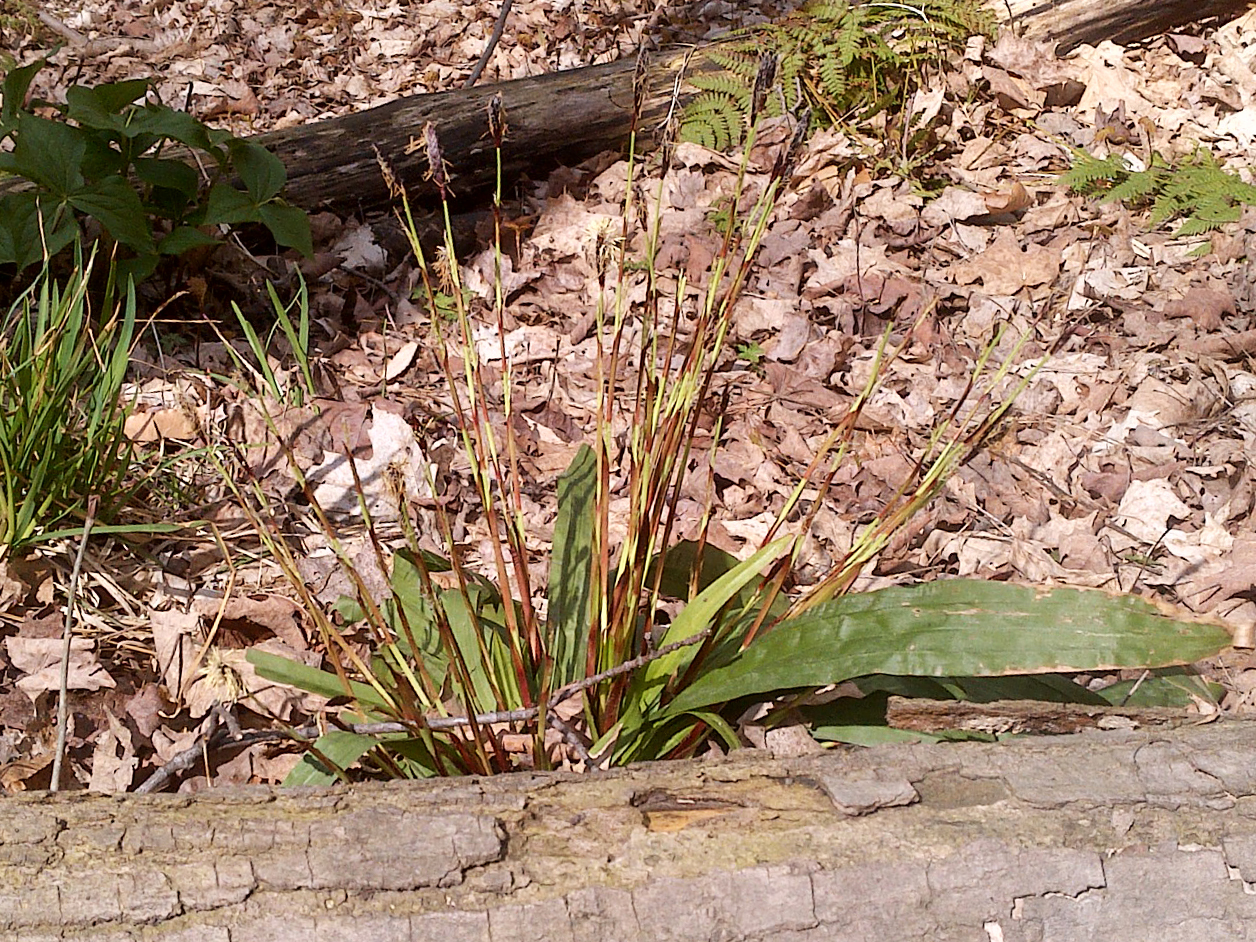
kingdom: Plantae
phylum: Tracheophyta
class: Liliopsida
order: Poales
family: Cyperaceae
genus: Carex
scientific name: Carex plantaginea
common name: Plantain-leaved sedge
